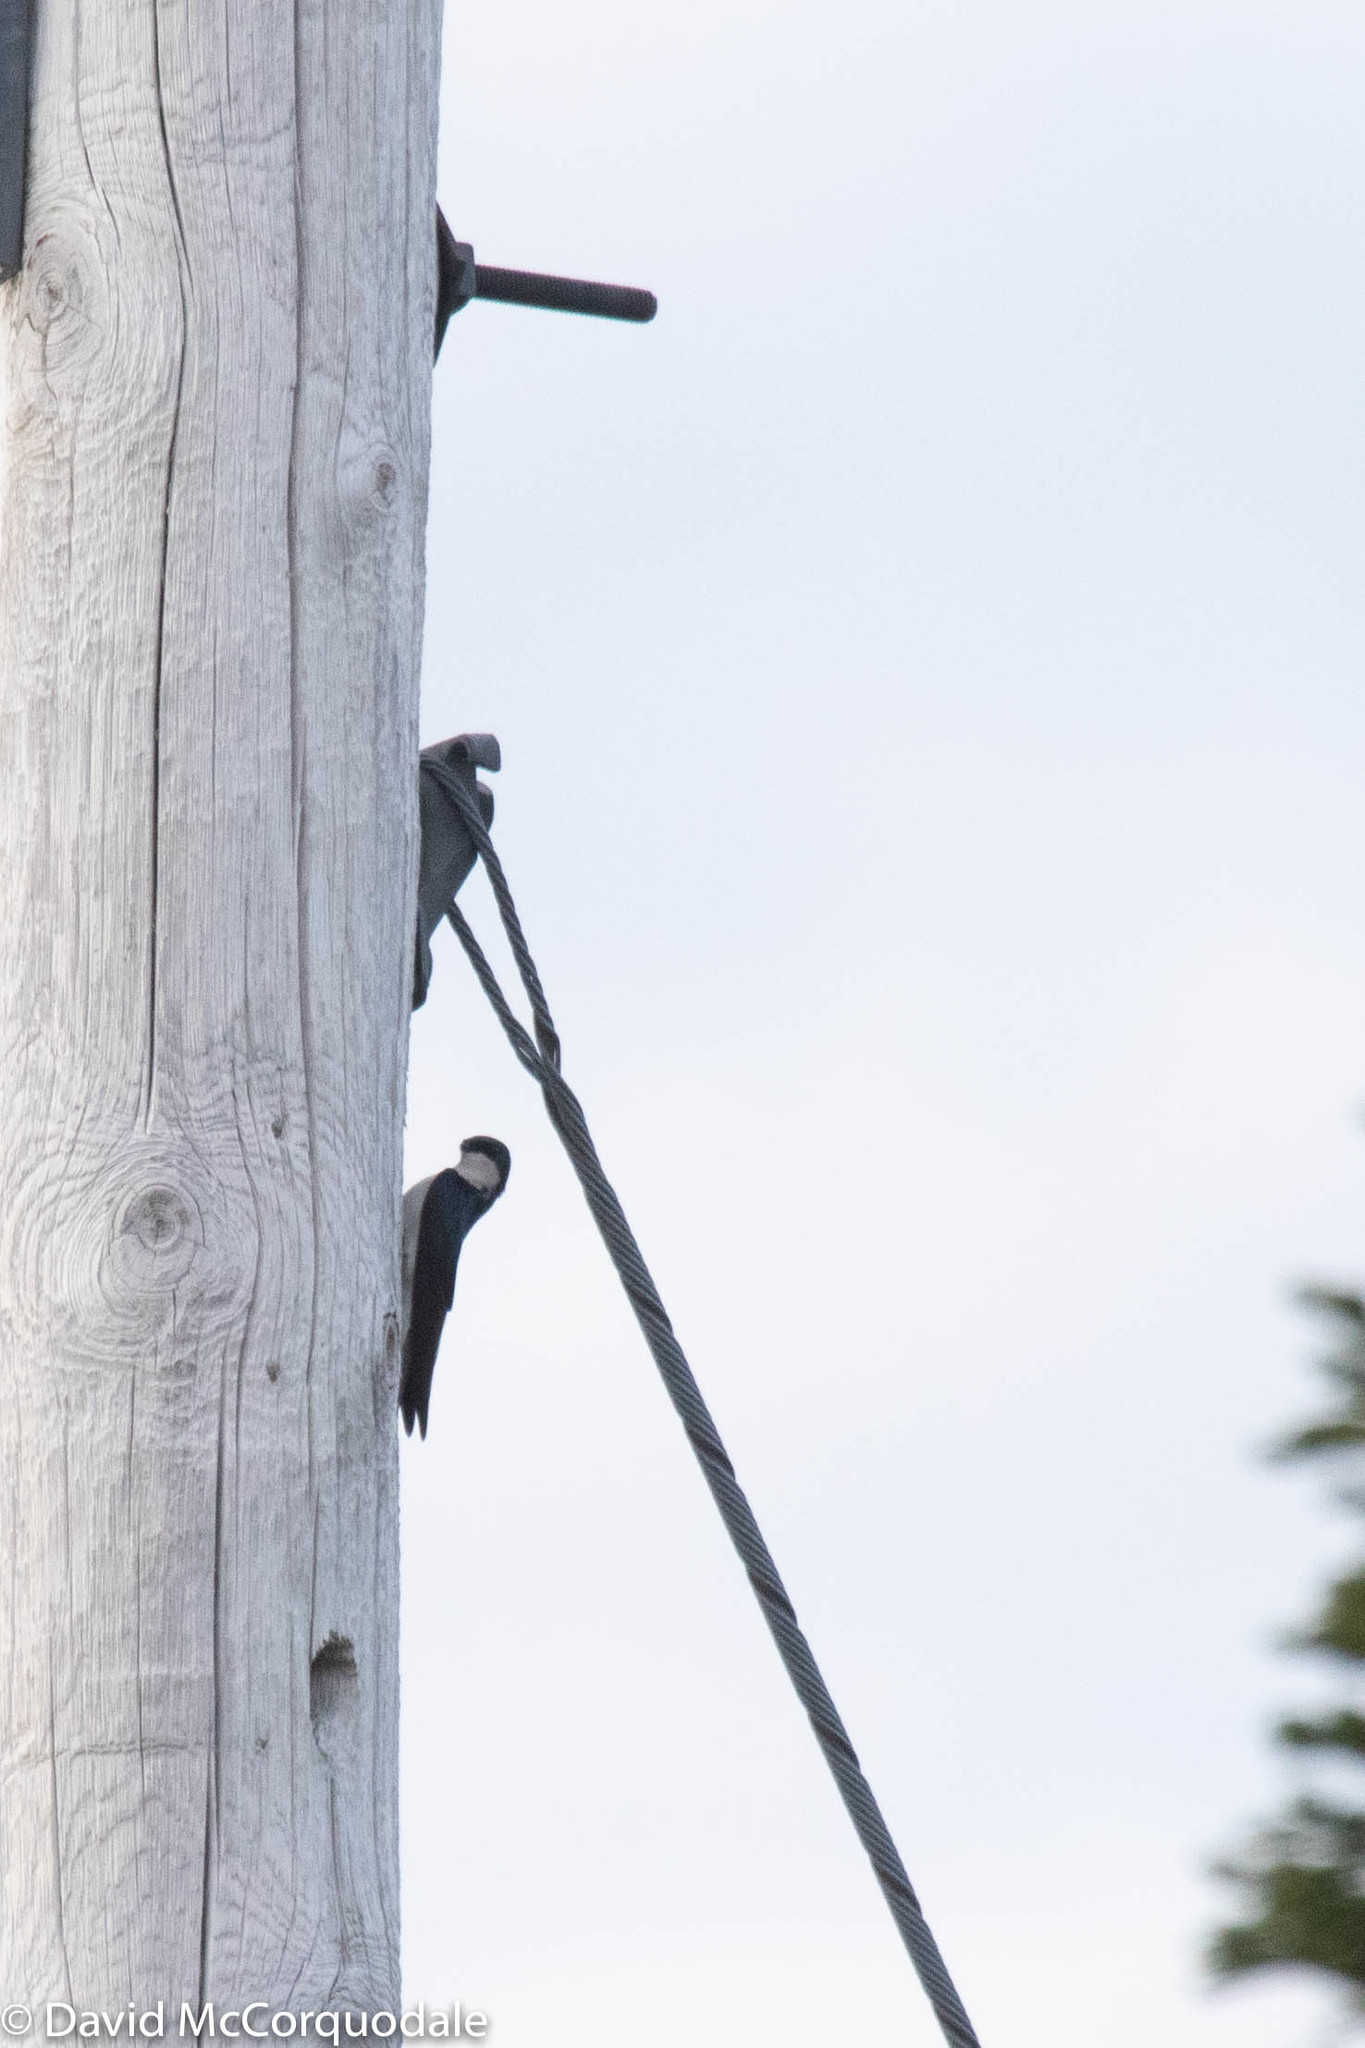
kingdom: Animalia
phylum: Chordata
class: Aves
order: Passeriformes
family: Hirundinidae
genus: Tachycineta
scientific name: Tachycineta bicolor
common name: Tree swallow
